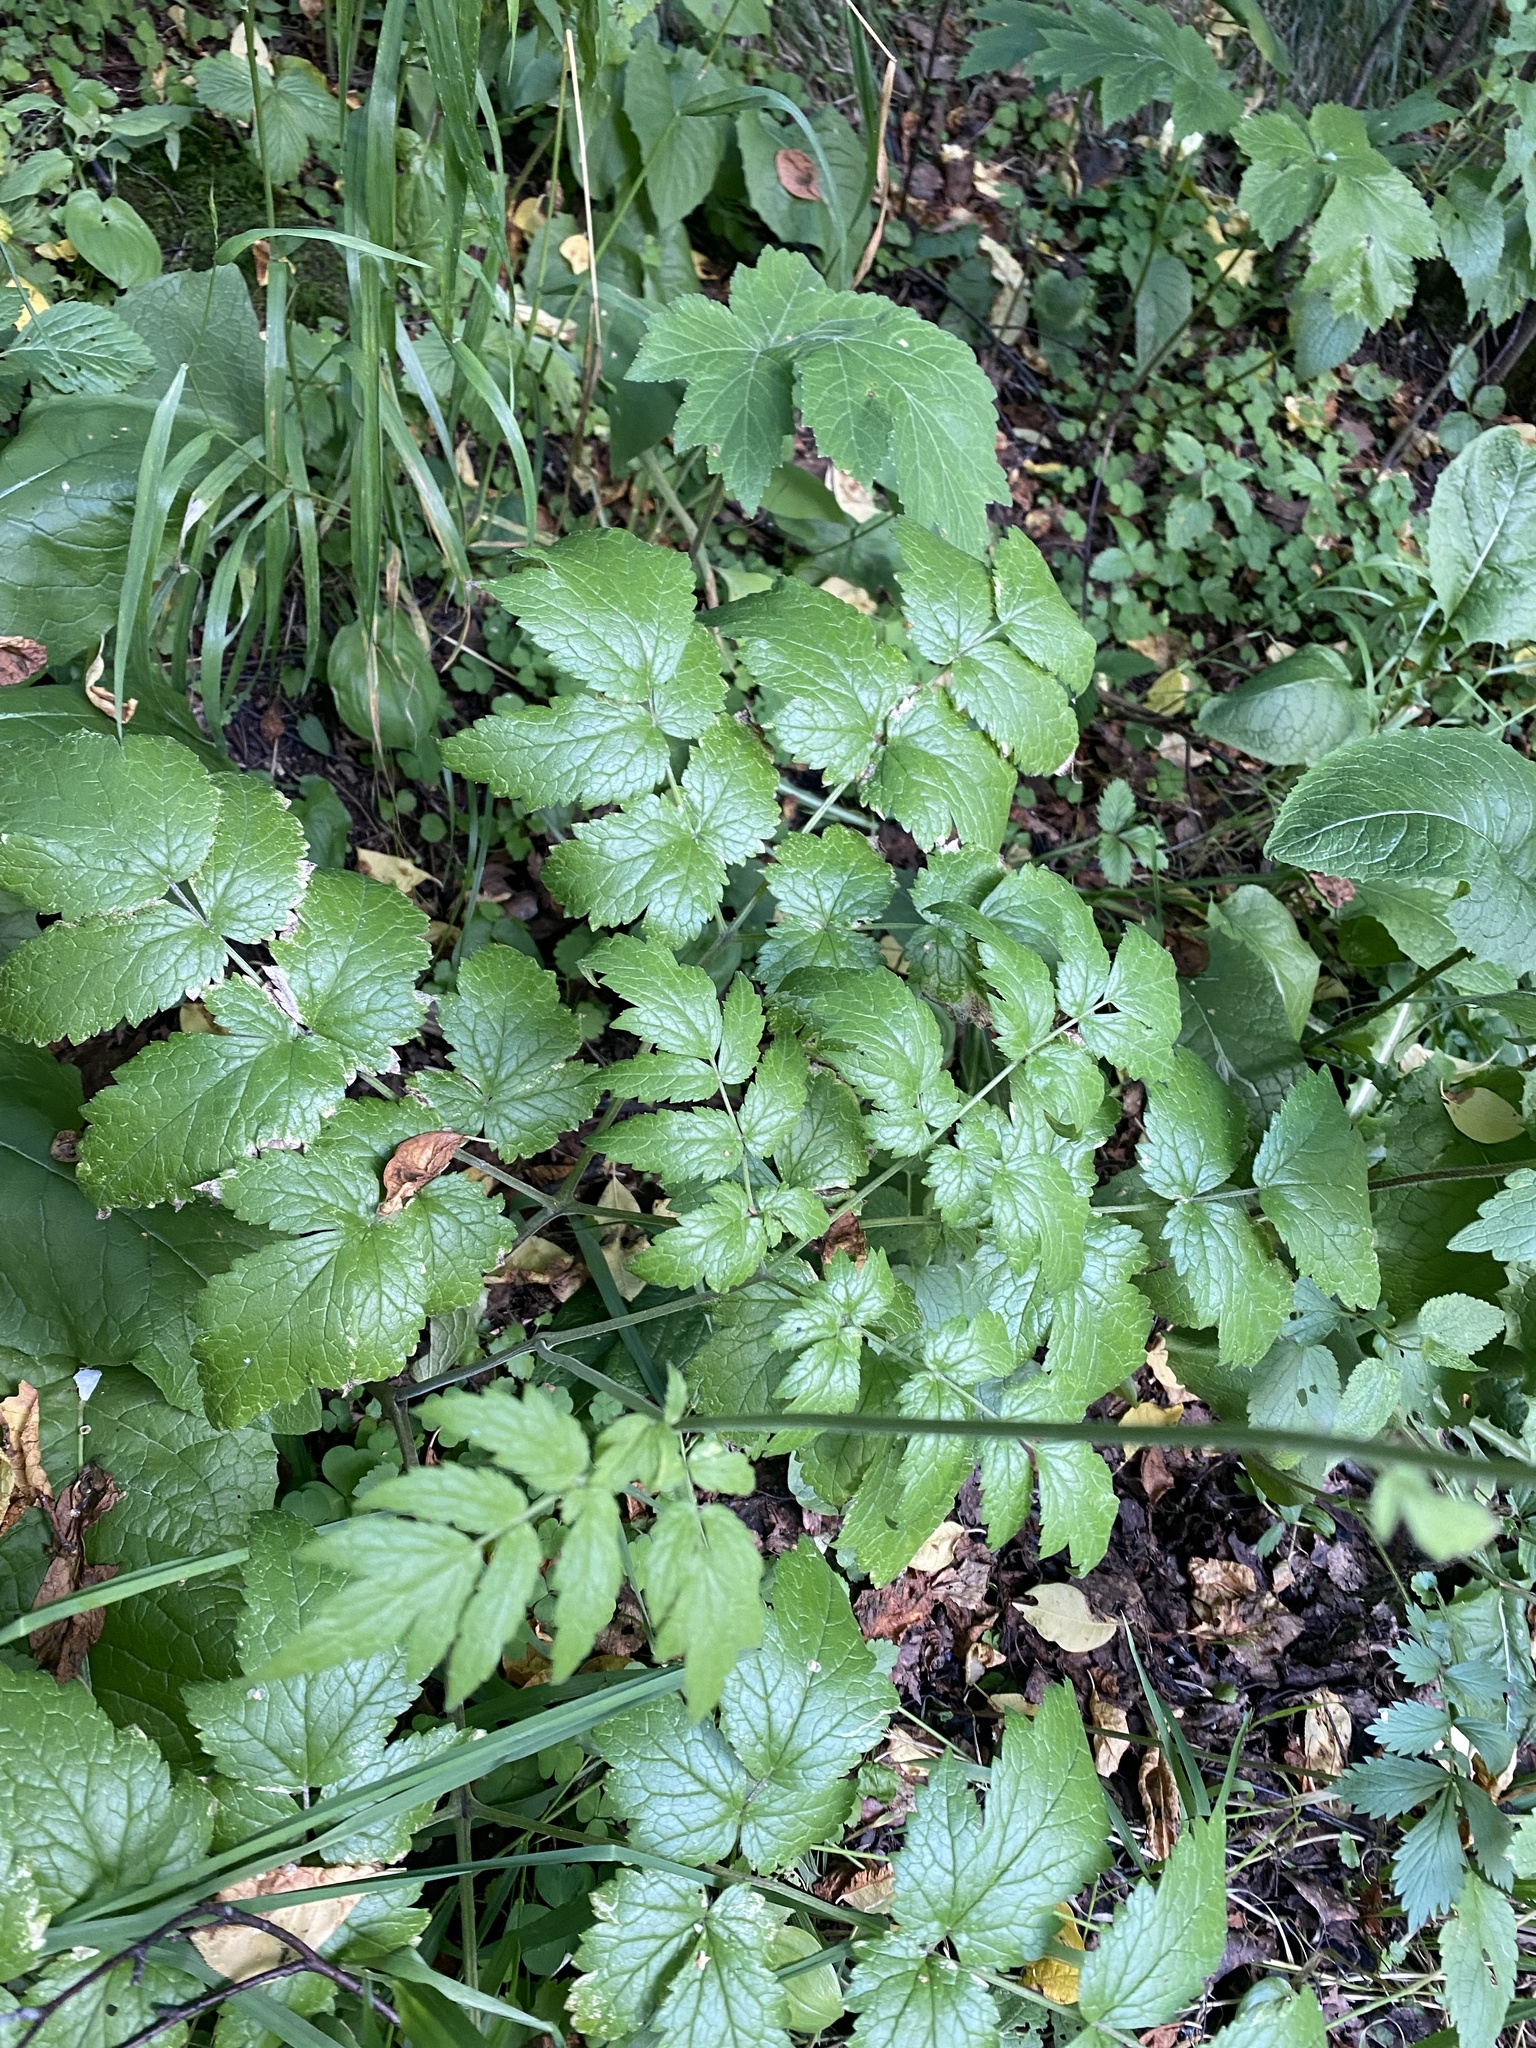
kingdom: Plantae
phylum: Tracheophyta
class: Magnoliopsida
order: Ranunculales
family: Ranunculaceae
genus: Actaea
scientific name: Actaea cimicifuga
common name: Chinese cimicifuga
